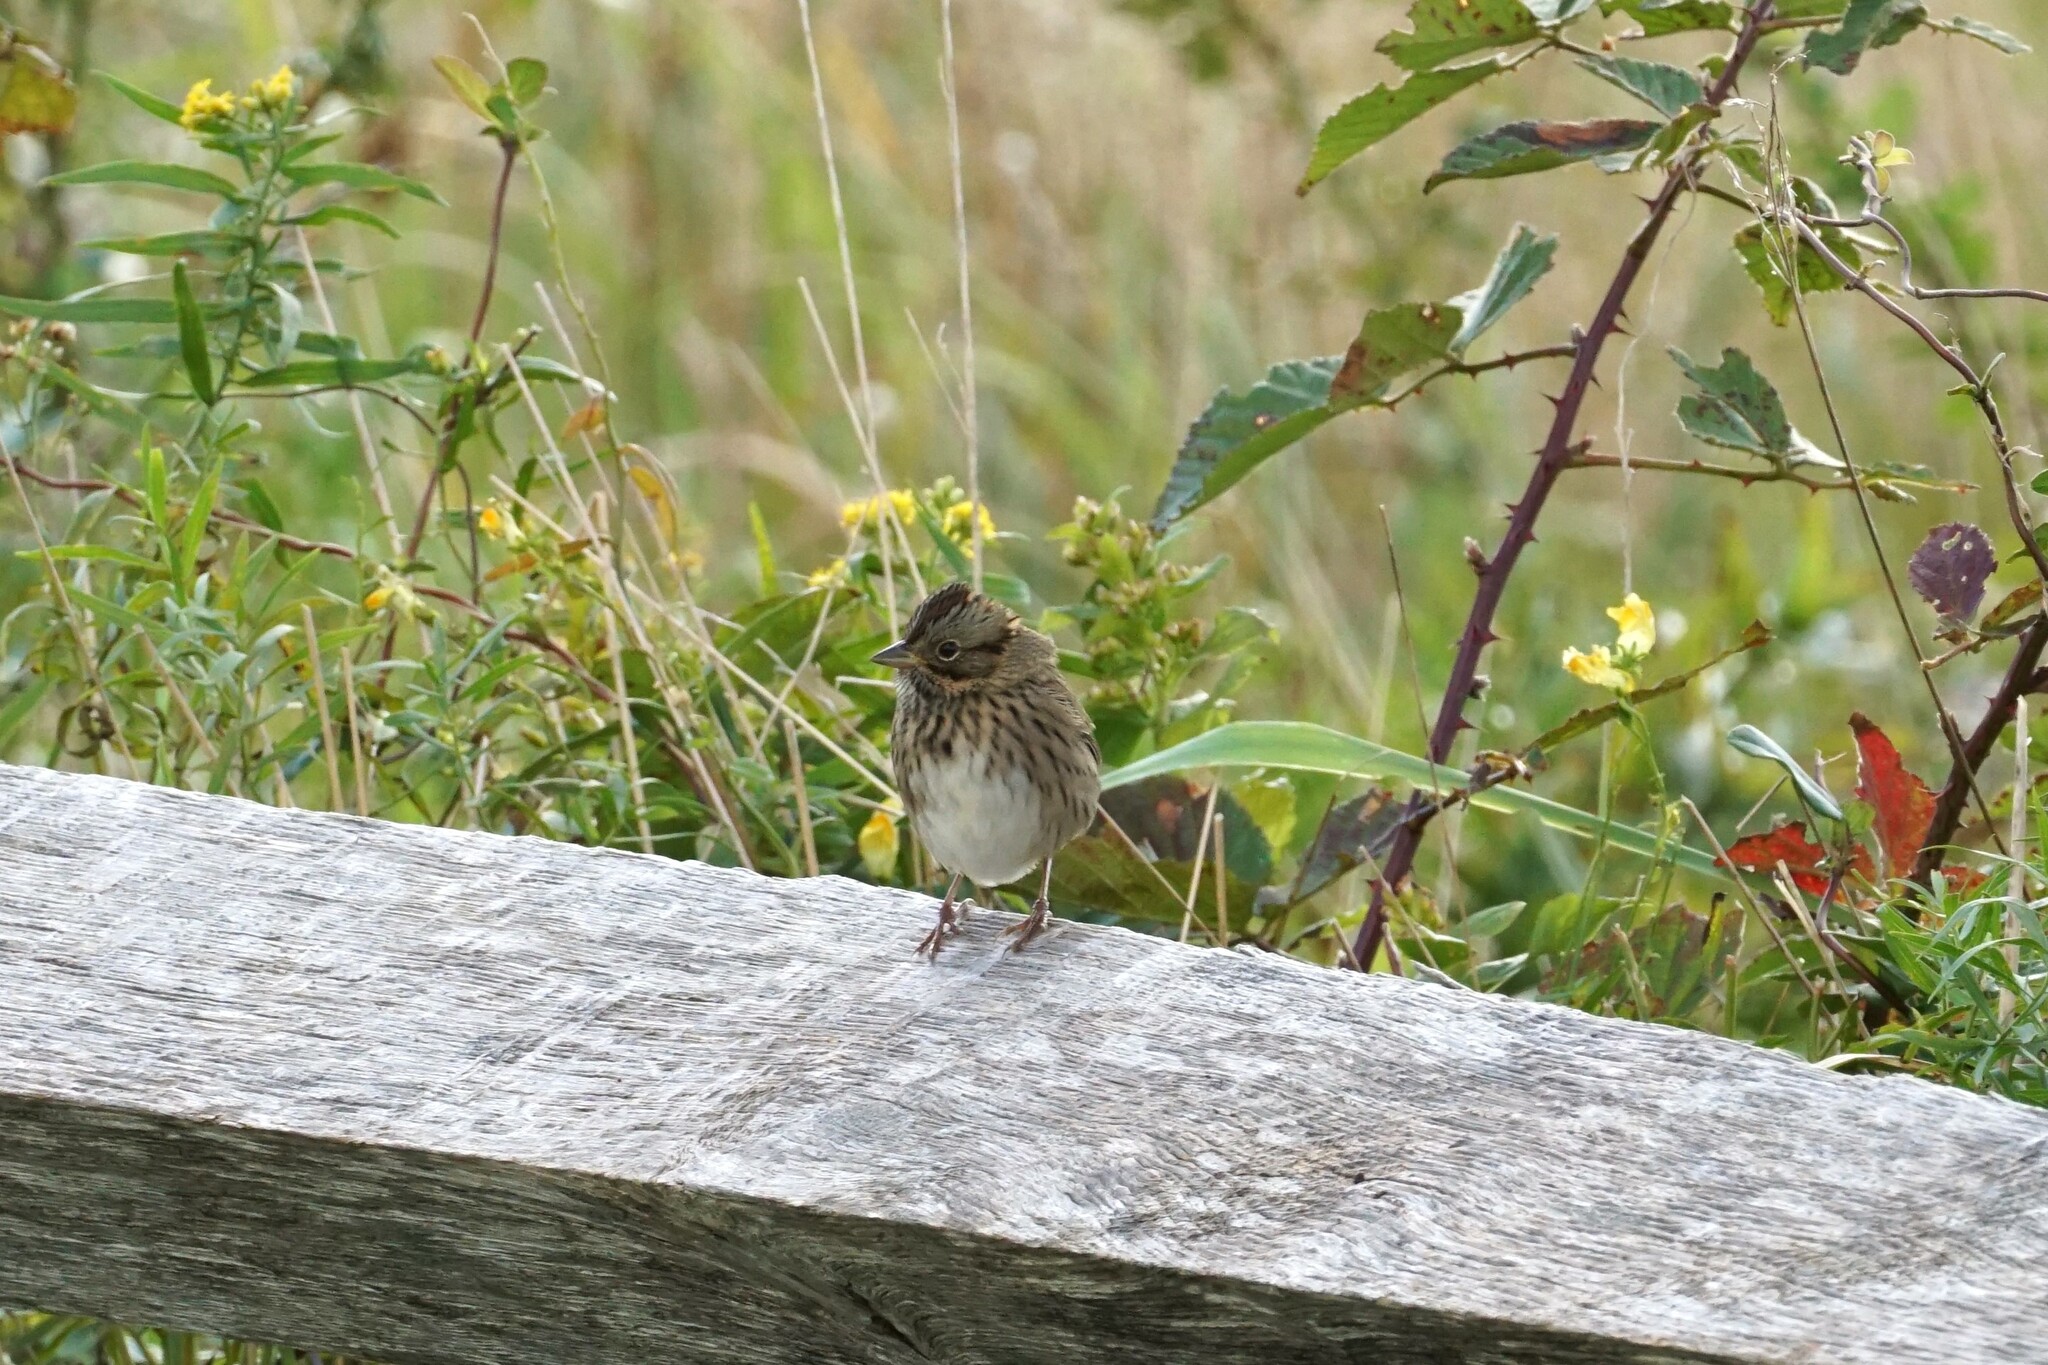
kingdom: Animalia
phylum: Chordata
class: Aves
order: Passeriformes
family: Passerellidae
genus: Melospiza
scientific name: Melospiza lincolnii
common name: Lincoln's sparrow
